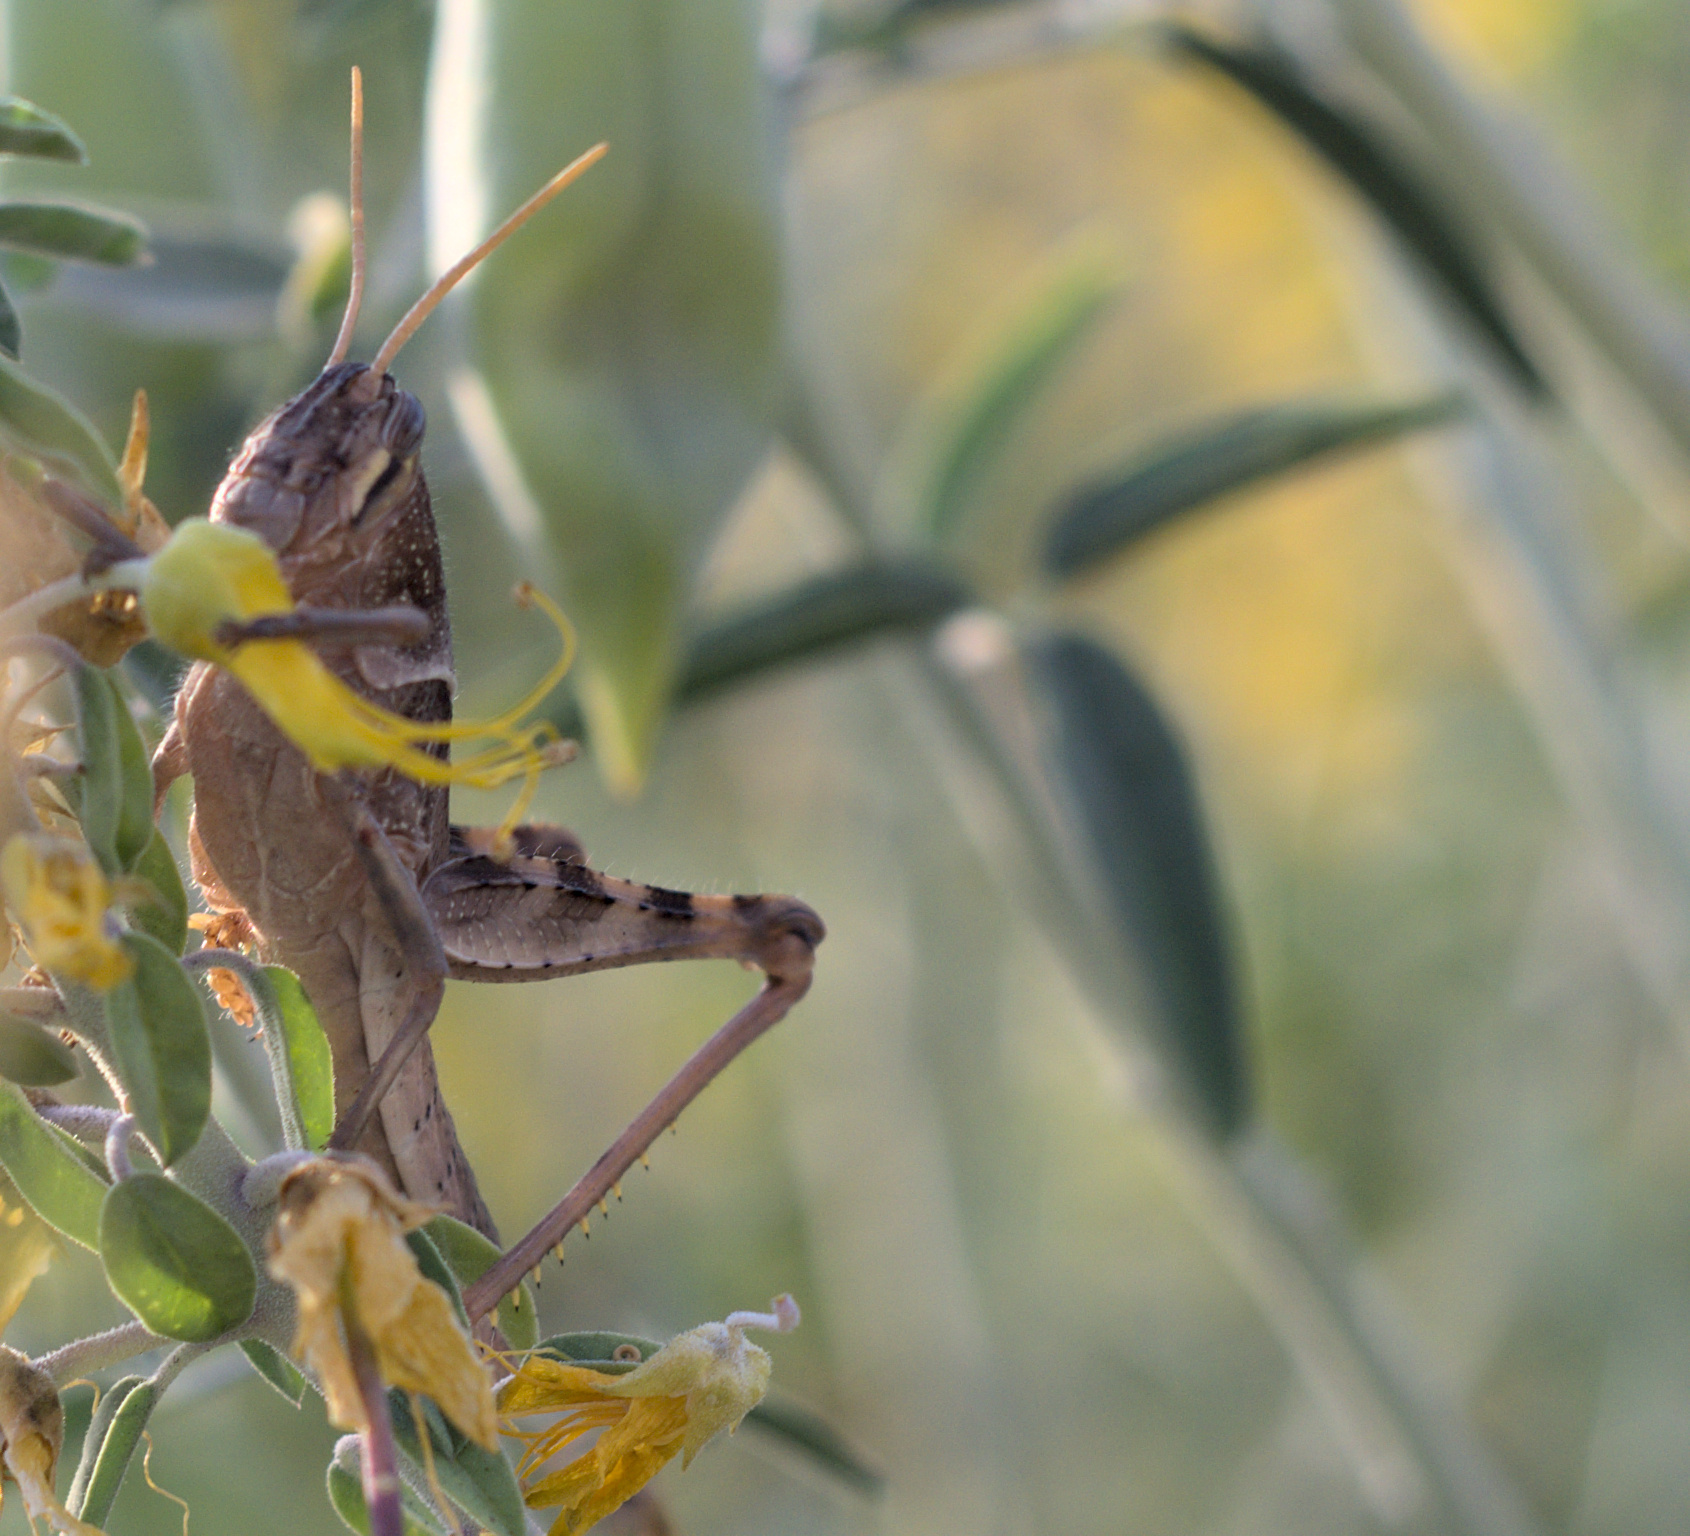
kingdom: Animalia
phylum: Arthropoda
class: Insecta
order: Orthoptera
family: Acrididae
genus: Schistocerca
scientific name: Schistocerca nitens
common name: Vagrant grasshopper
